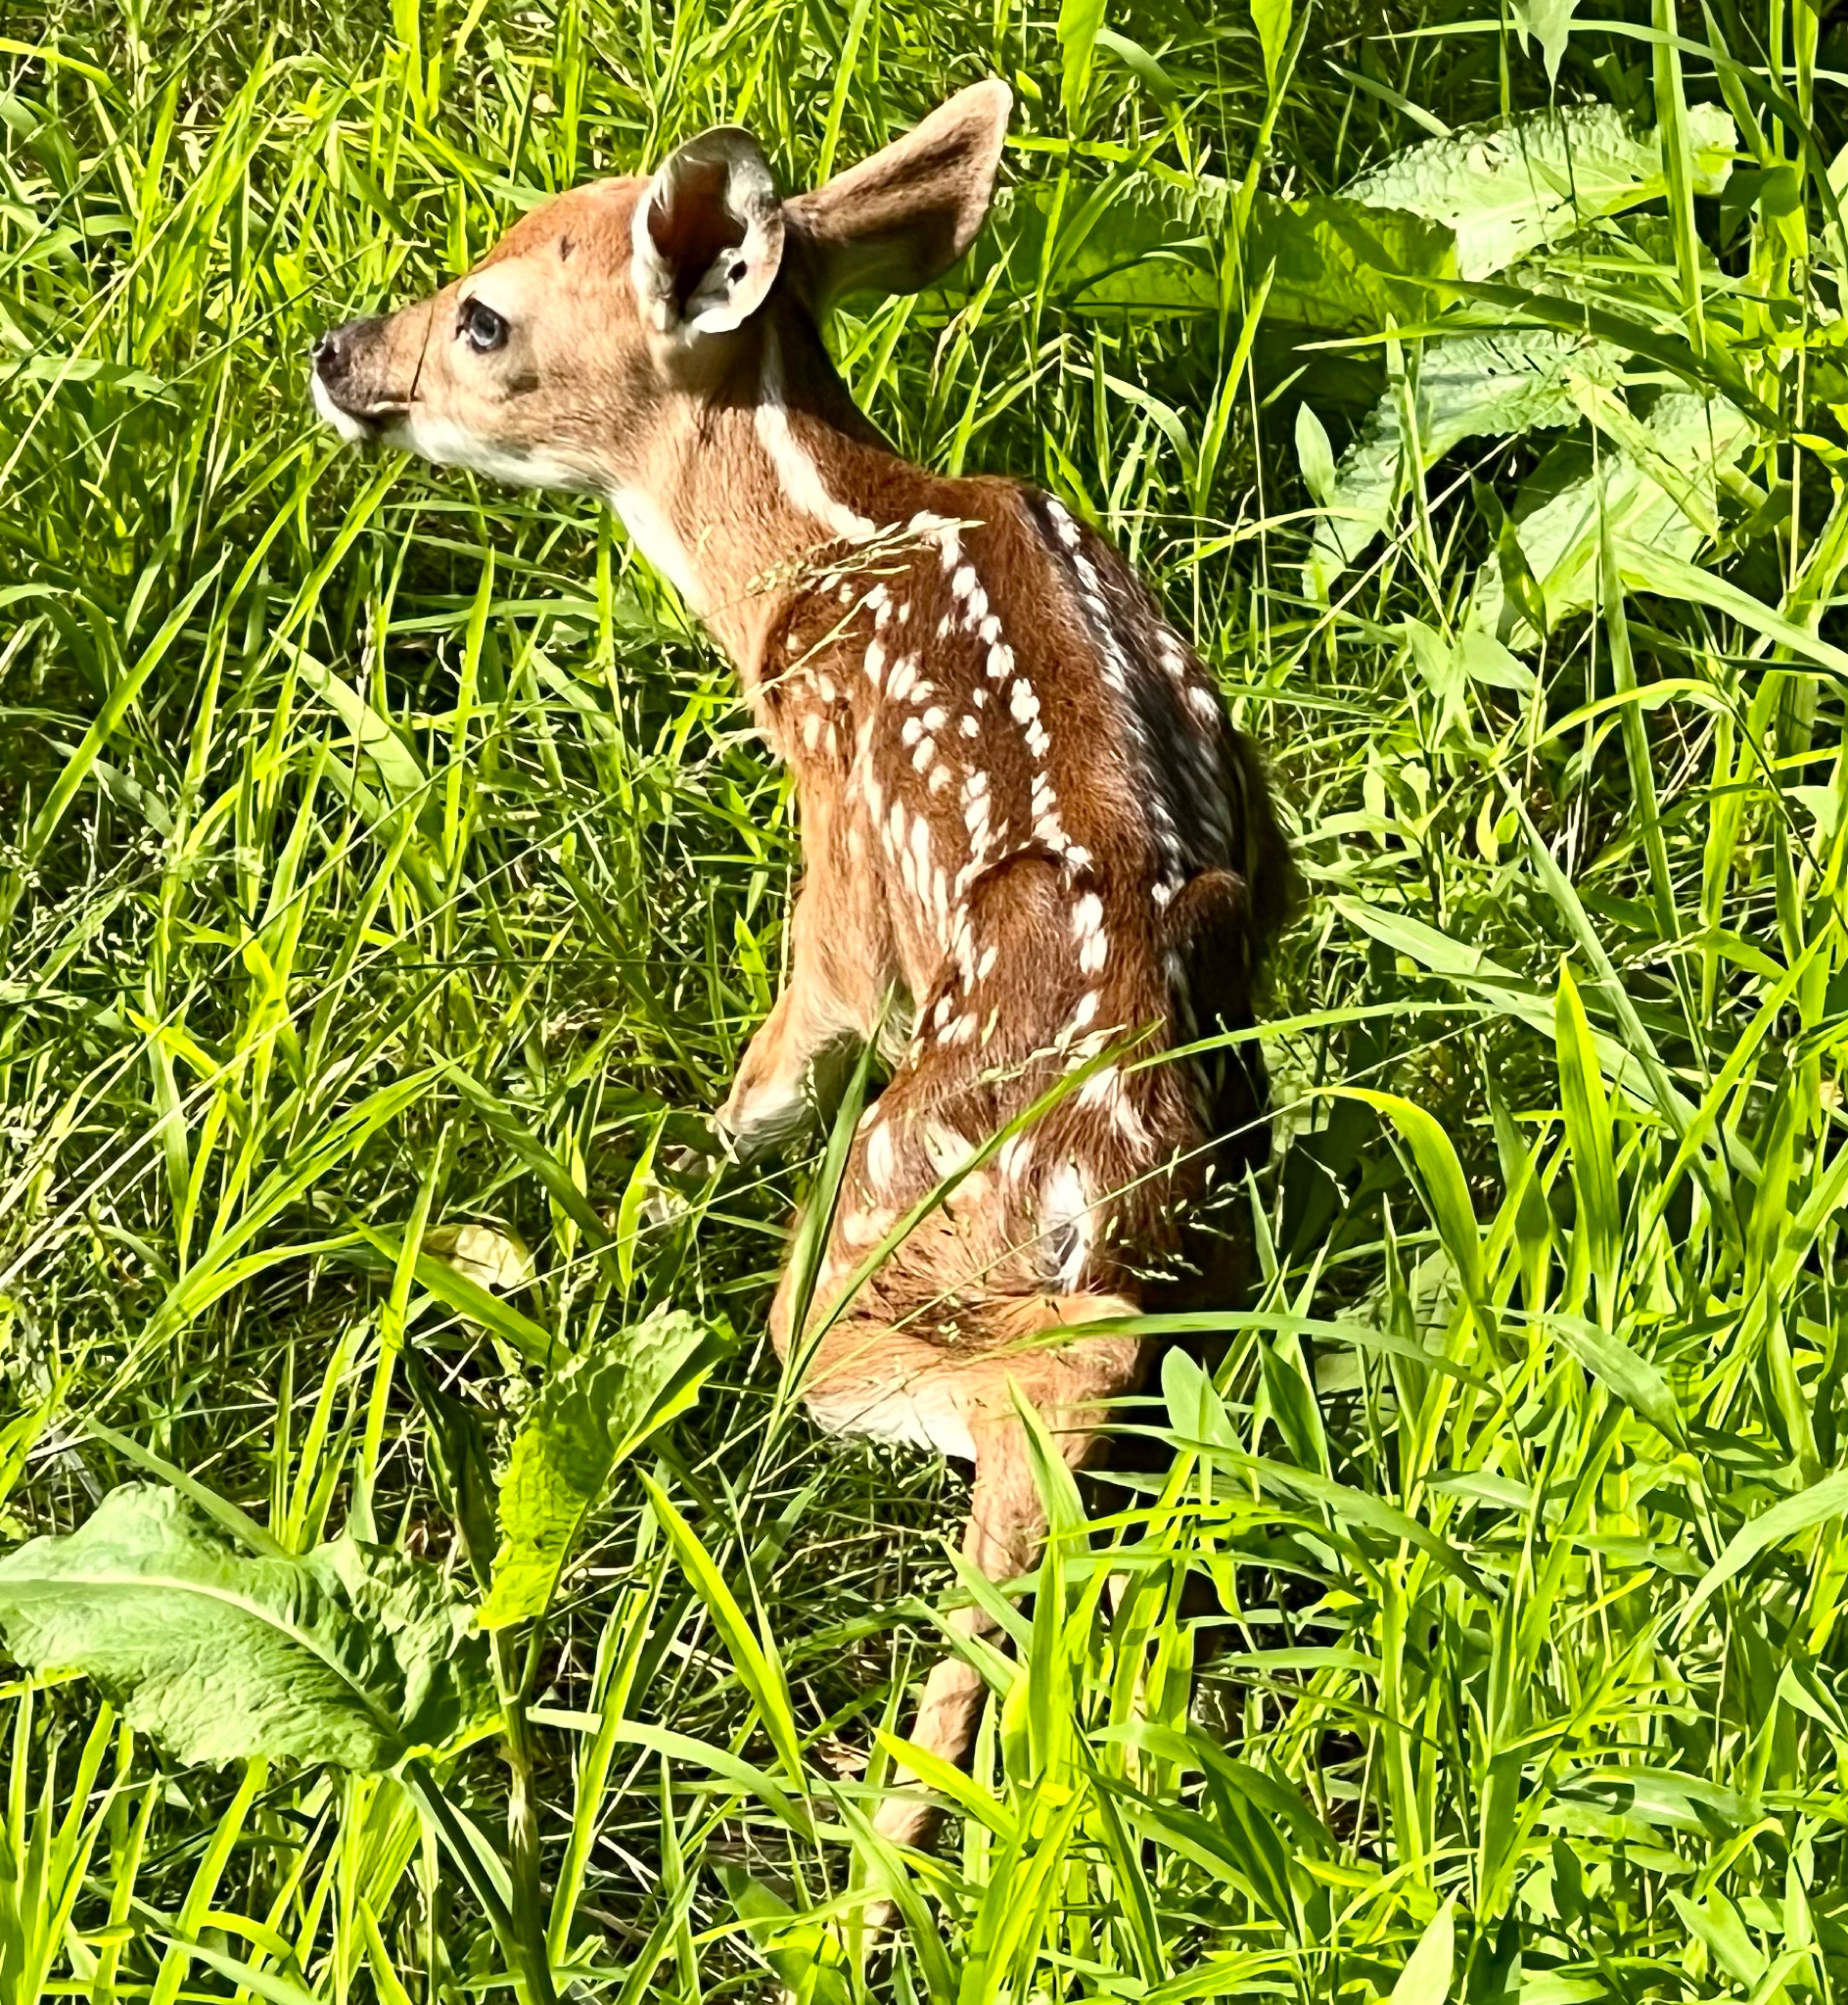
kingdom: Animalia
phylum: Chordata
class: Mammalia
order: Artiodactyla
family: Cervidae
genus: Odocoileus
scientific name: Odocoileus virginianus
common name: White-tailed deer
